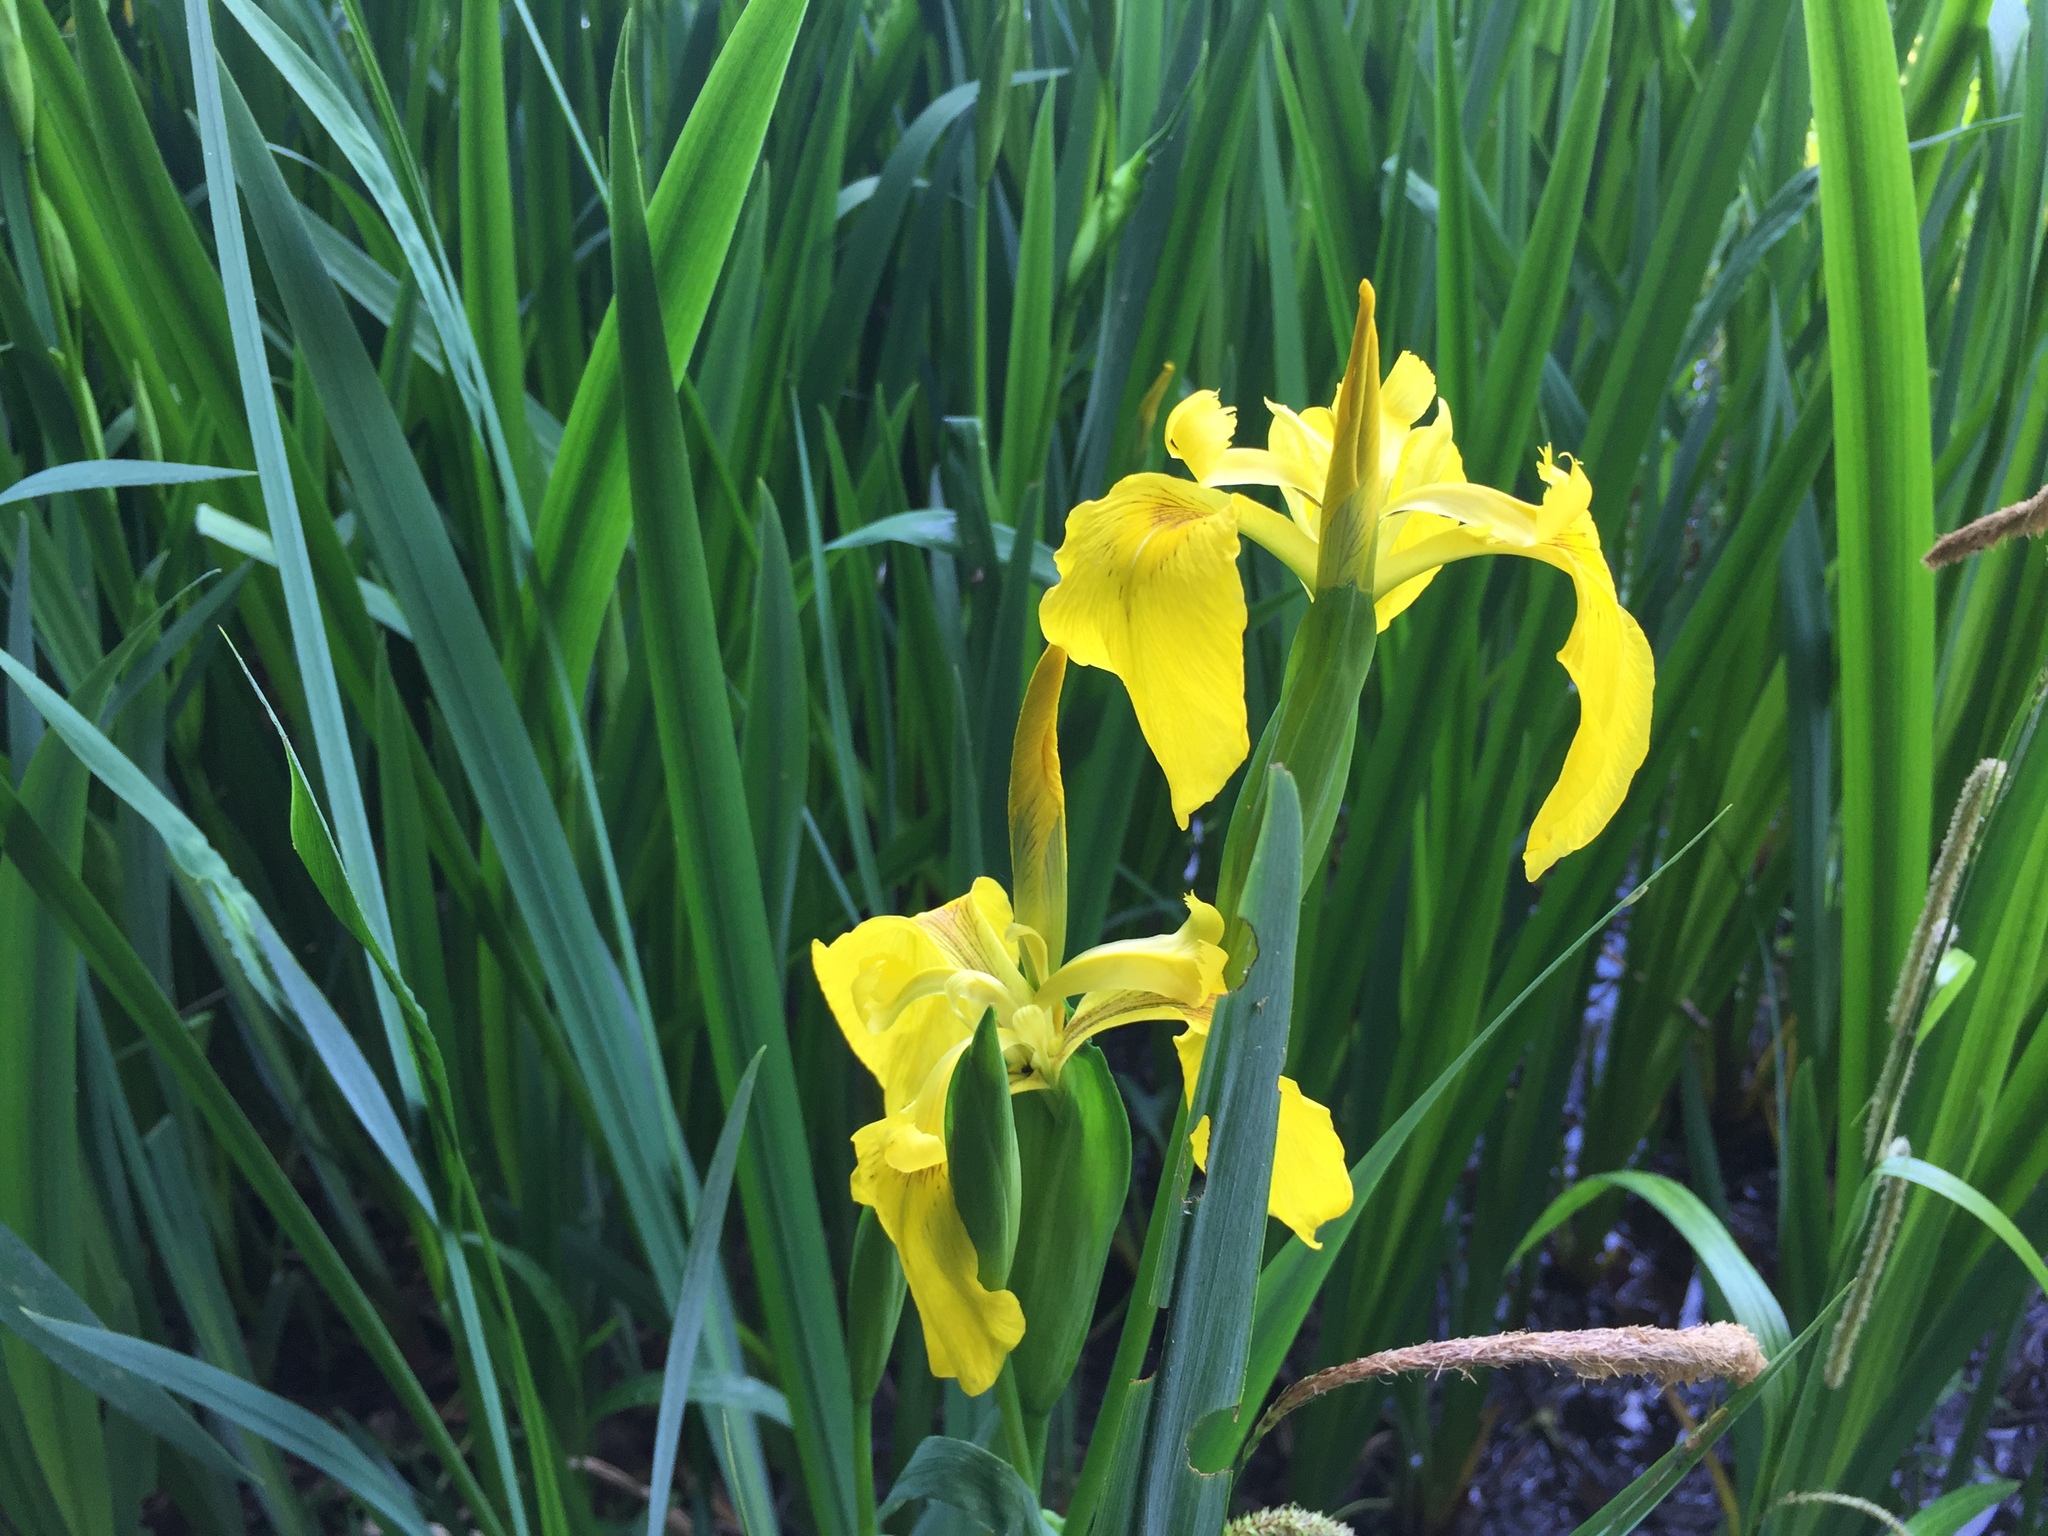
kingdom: Plantae
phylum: Tracheophyta
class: Liliopsida
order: Asparagales
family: Iridaceae
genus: Iris
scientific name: Iris pseudacorus
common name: Yellow flag
